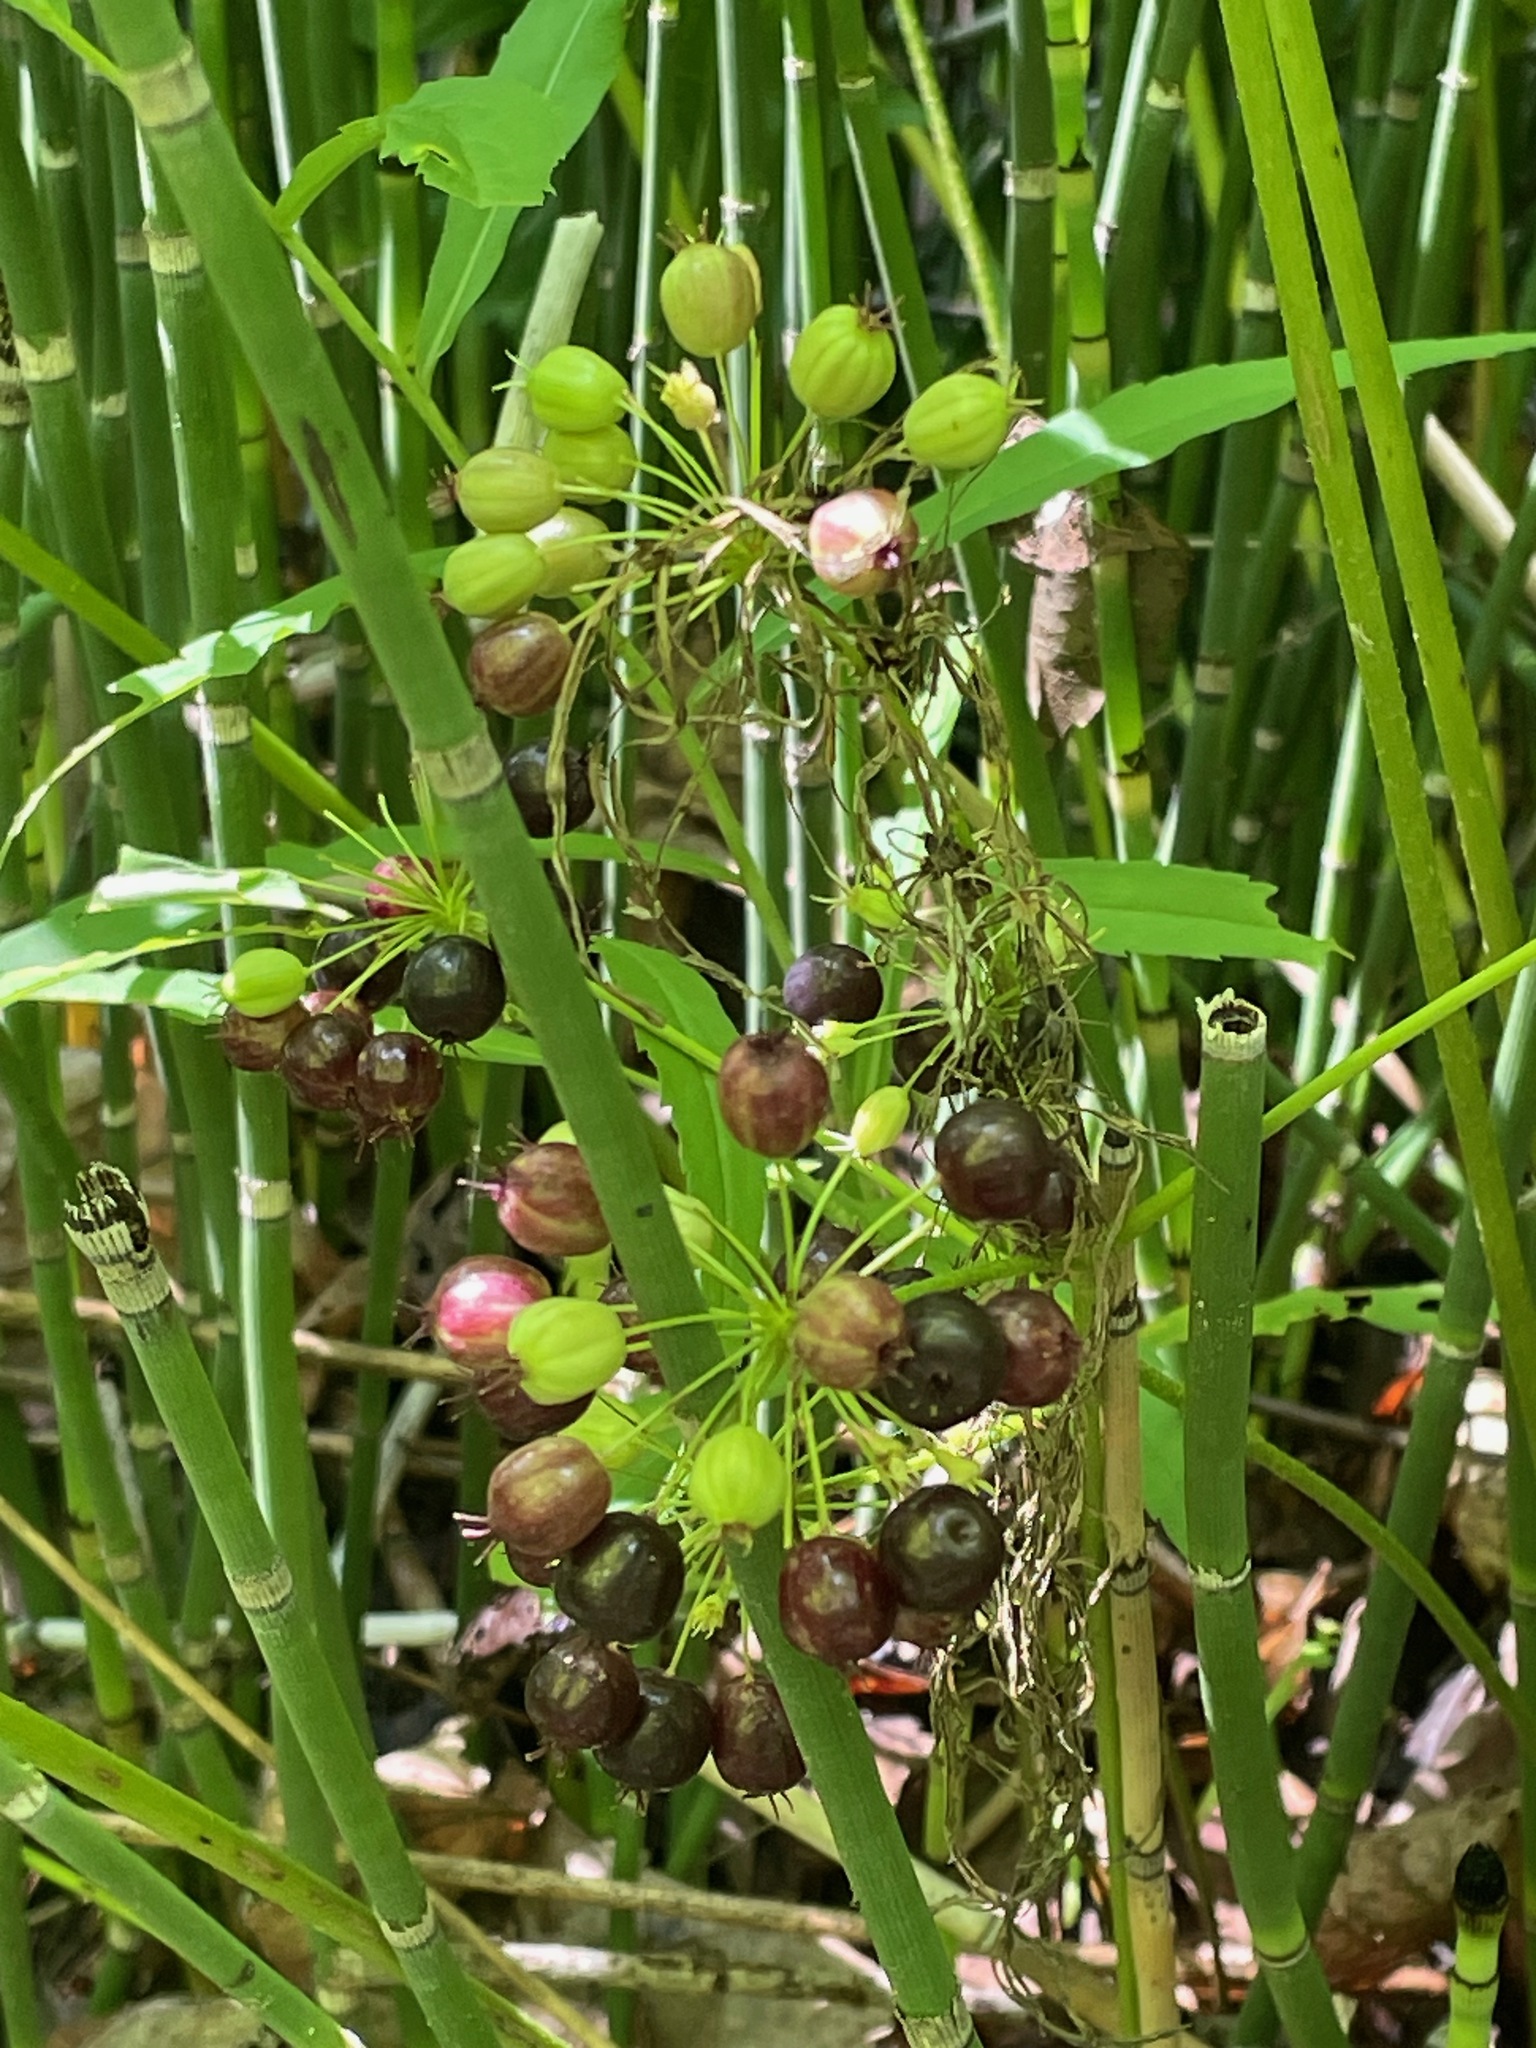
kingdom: Plantae
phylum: Tracheophyta
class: Magnoliopsida
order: Apiales
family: Araliaceae
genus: Aralia
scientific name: Aralia nudicaulis
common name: Wild sarsaparilla
